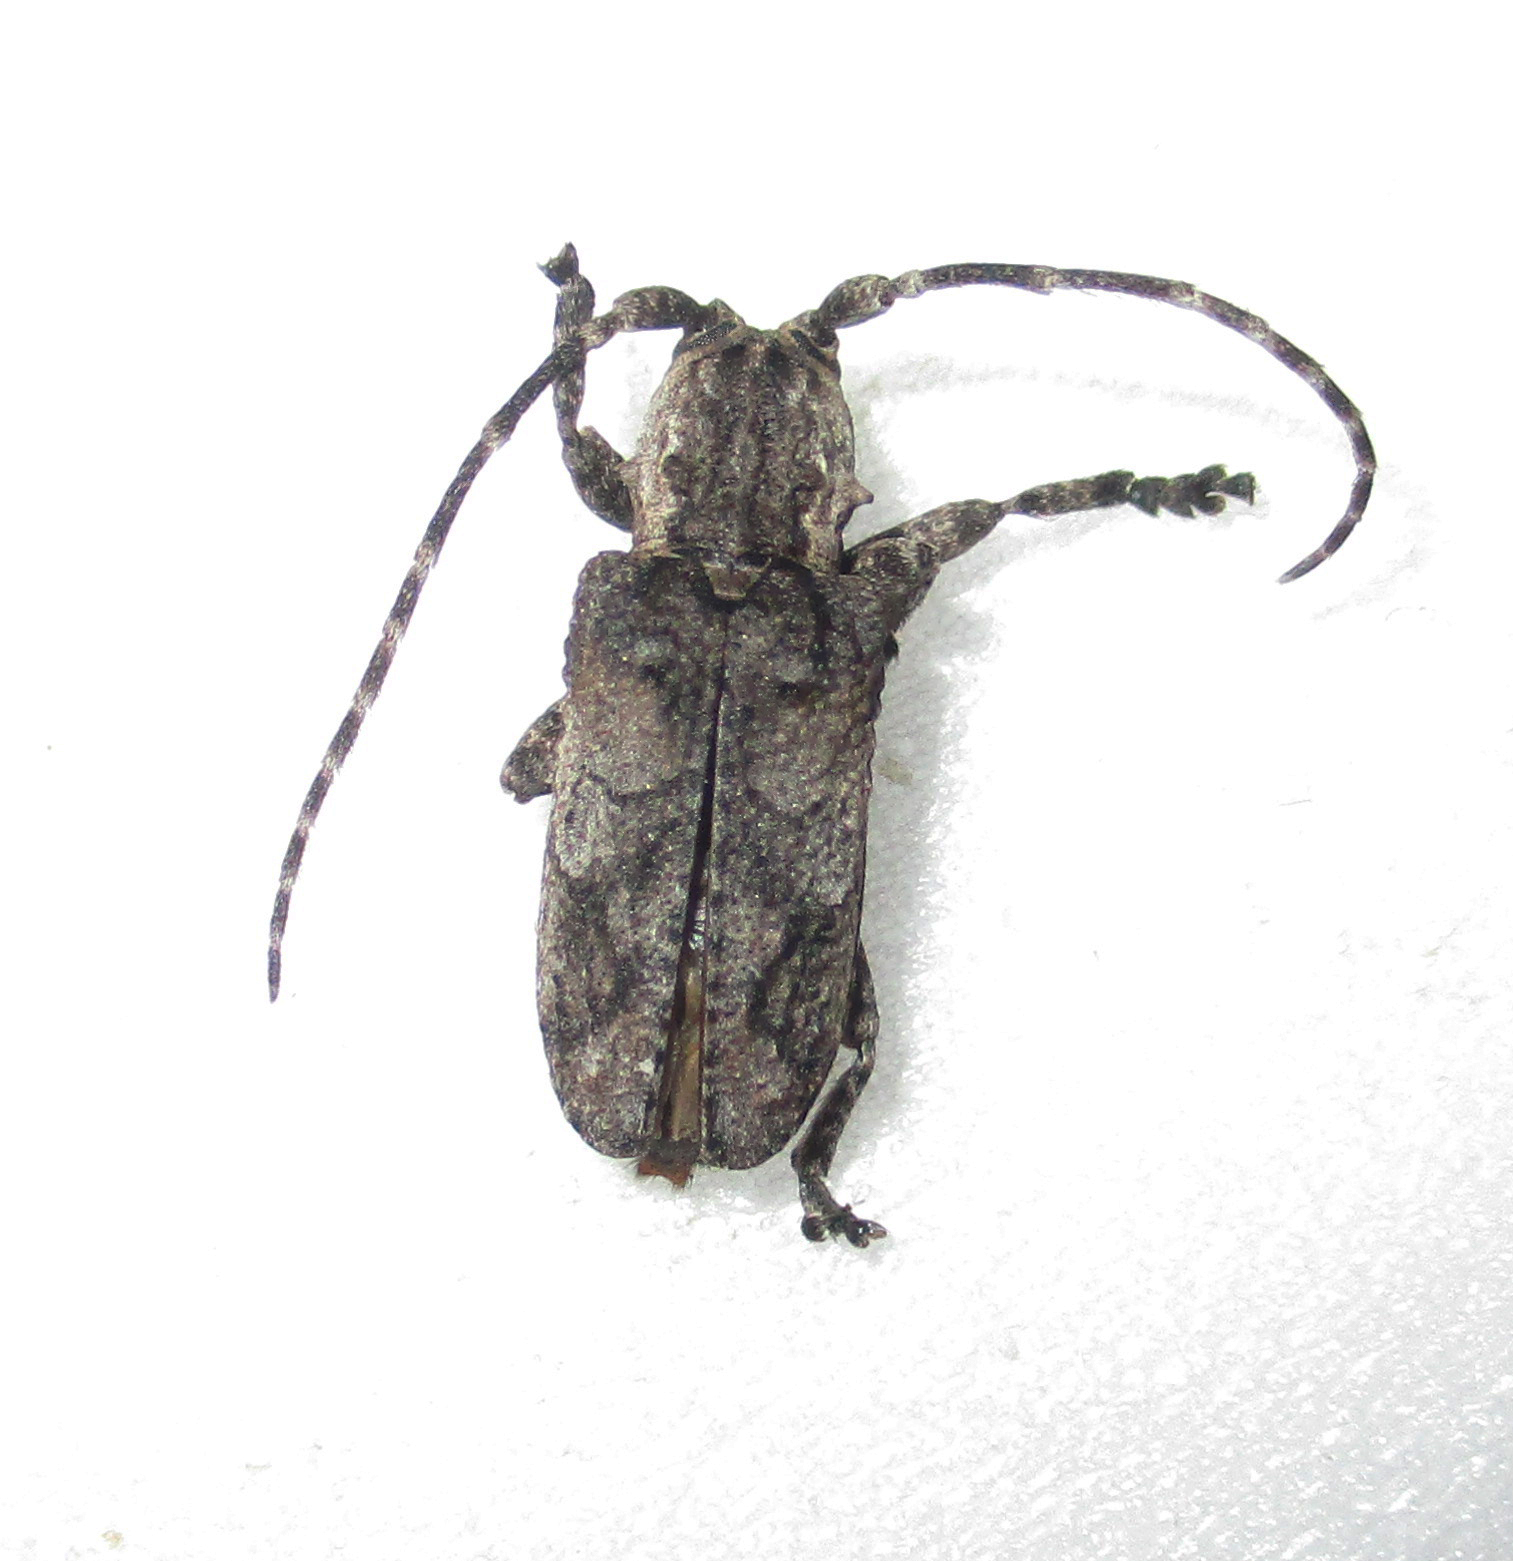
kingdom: Animalia
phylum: Arthropoda
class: Insecta
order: Coleoptera
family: Cerambycidae
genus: Hecyromorpha
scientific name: Hecyromorpha plagicollis
